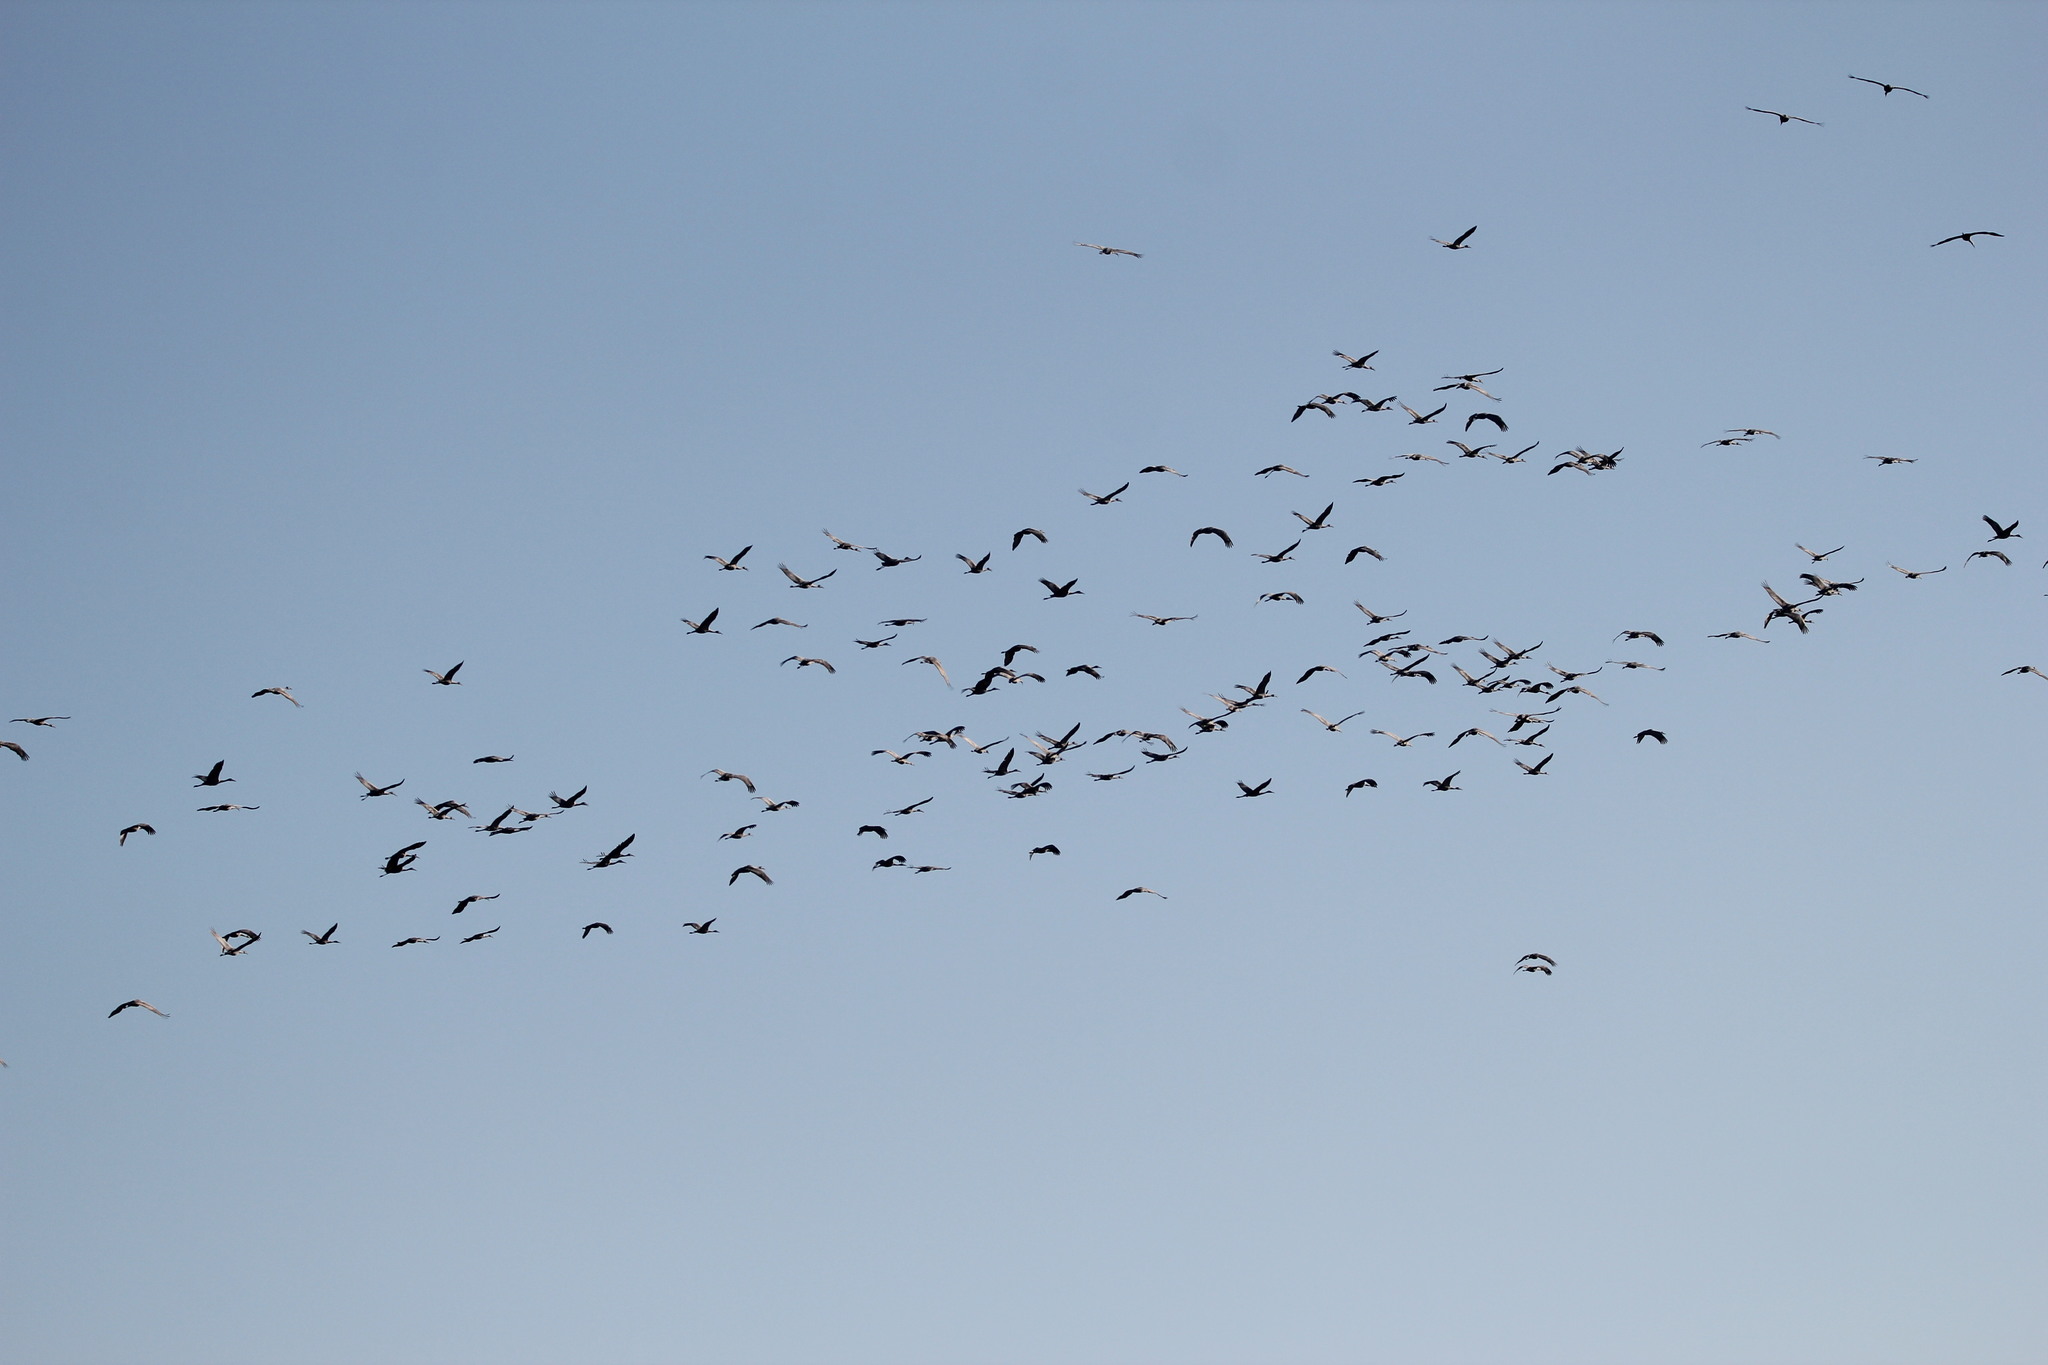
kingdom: Animalia
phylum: Chordata
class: Aves
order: Gruiformes
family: Gruidae
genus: Grus
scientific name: Grus canadensis
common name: Sandhill crane
